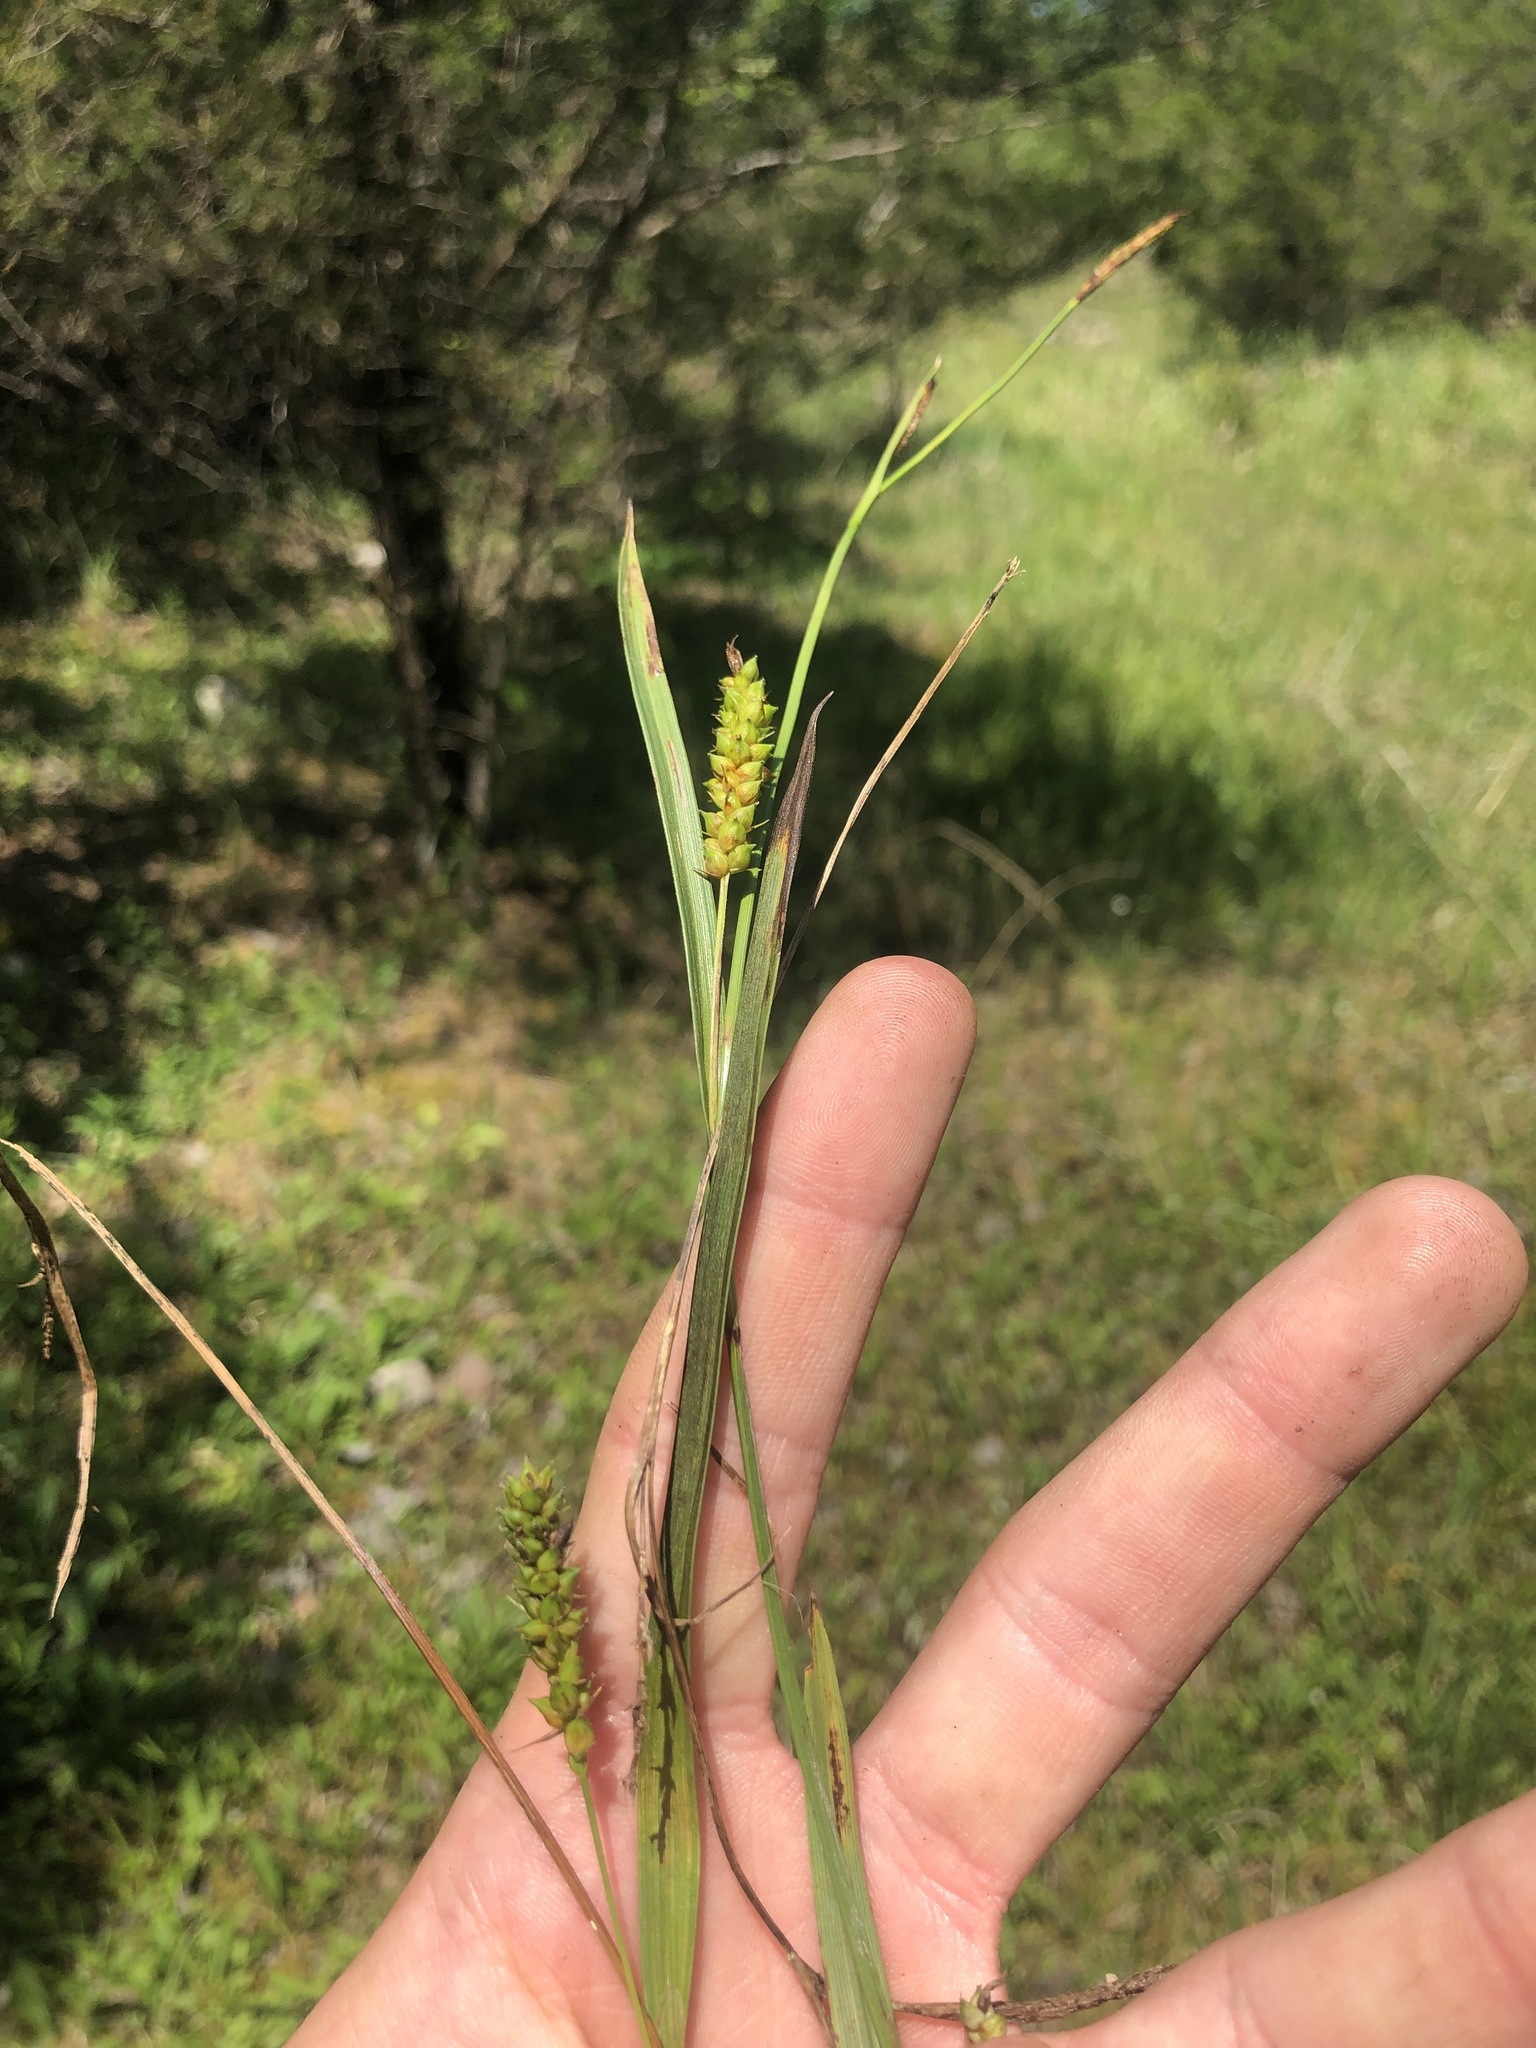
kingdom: Plantae
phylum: Tracheophyta
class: Liliopsida
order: Poales
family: Cyperaceae
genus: Carex
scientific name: Carex microdonta
